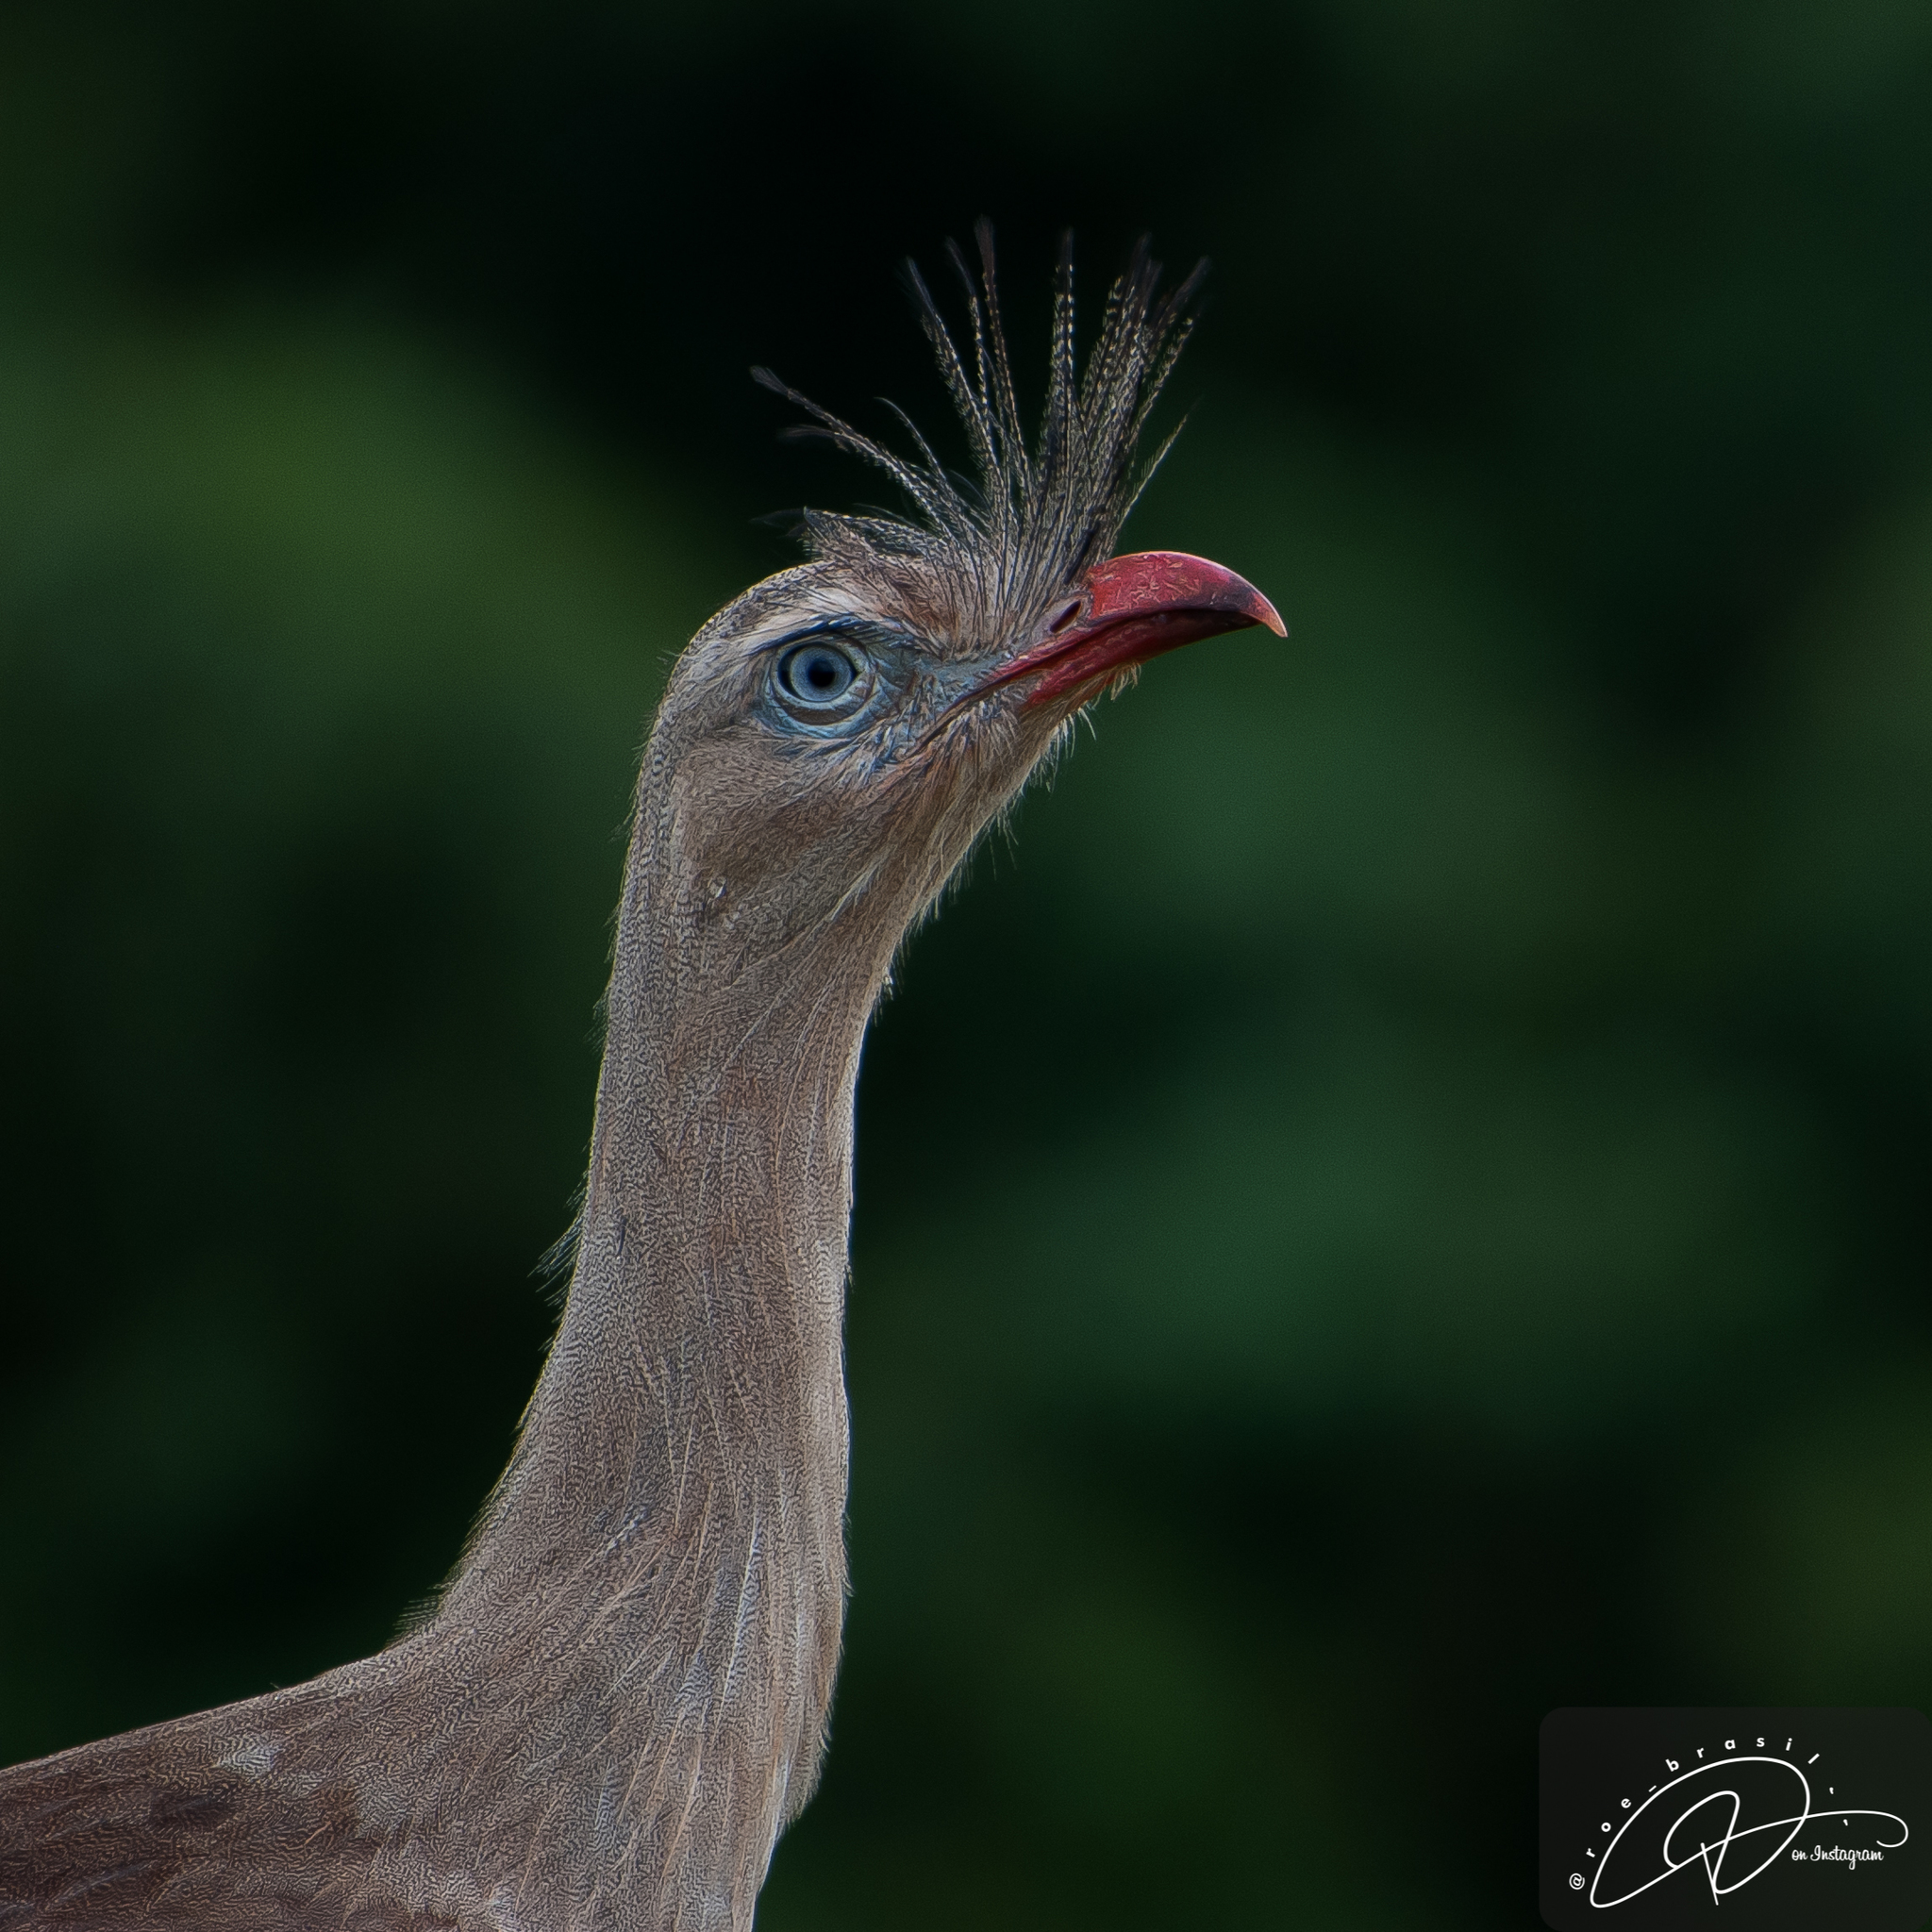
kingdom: Animalia
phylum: Chordata
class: Aves
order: Cariamiformes
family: Cariamidae
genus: Cariama
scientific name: Cariama cristata
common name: Red-legged seriema
